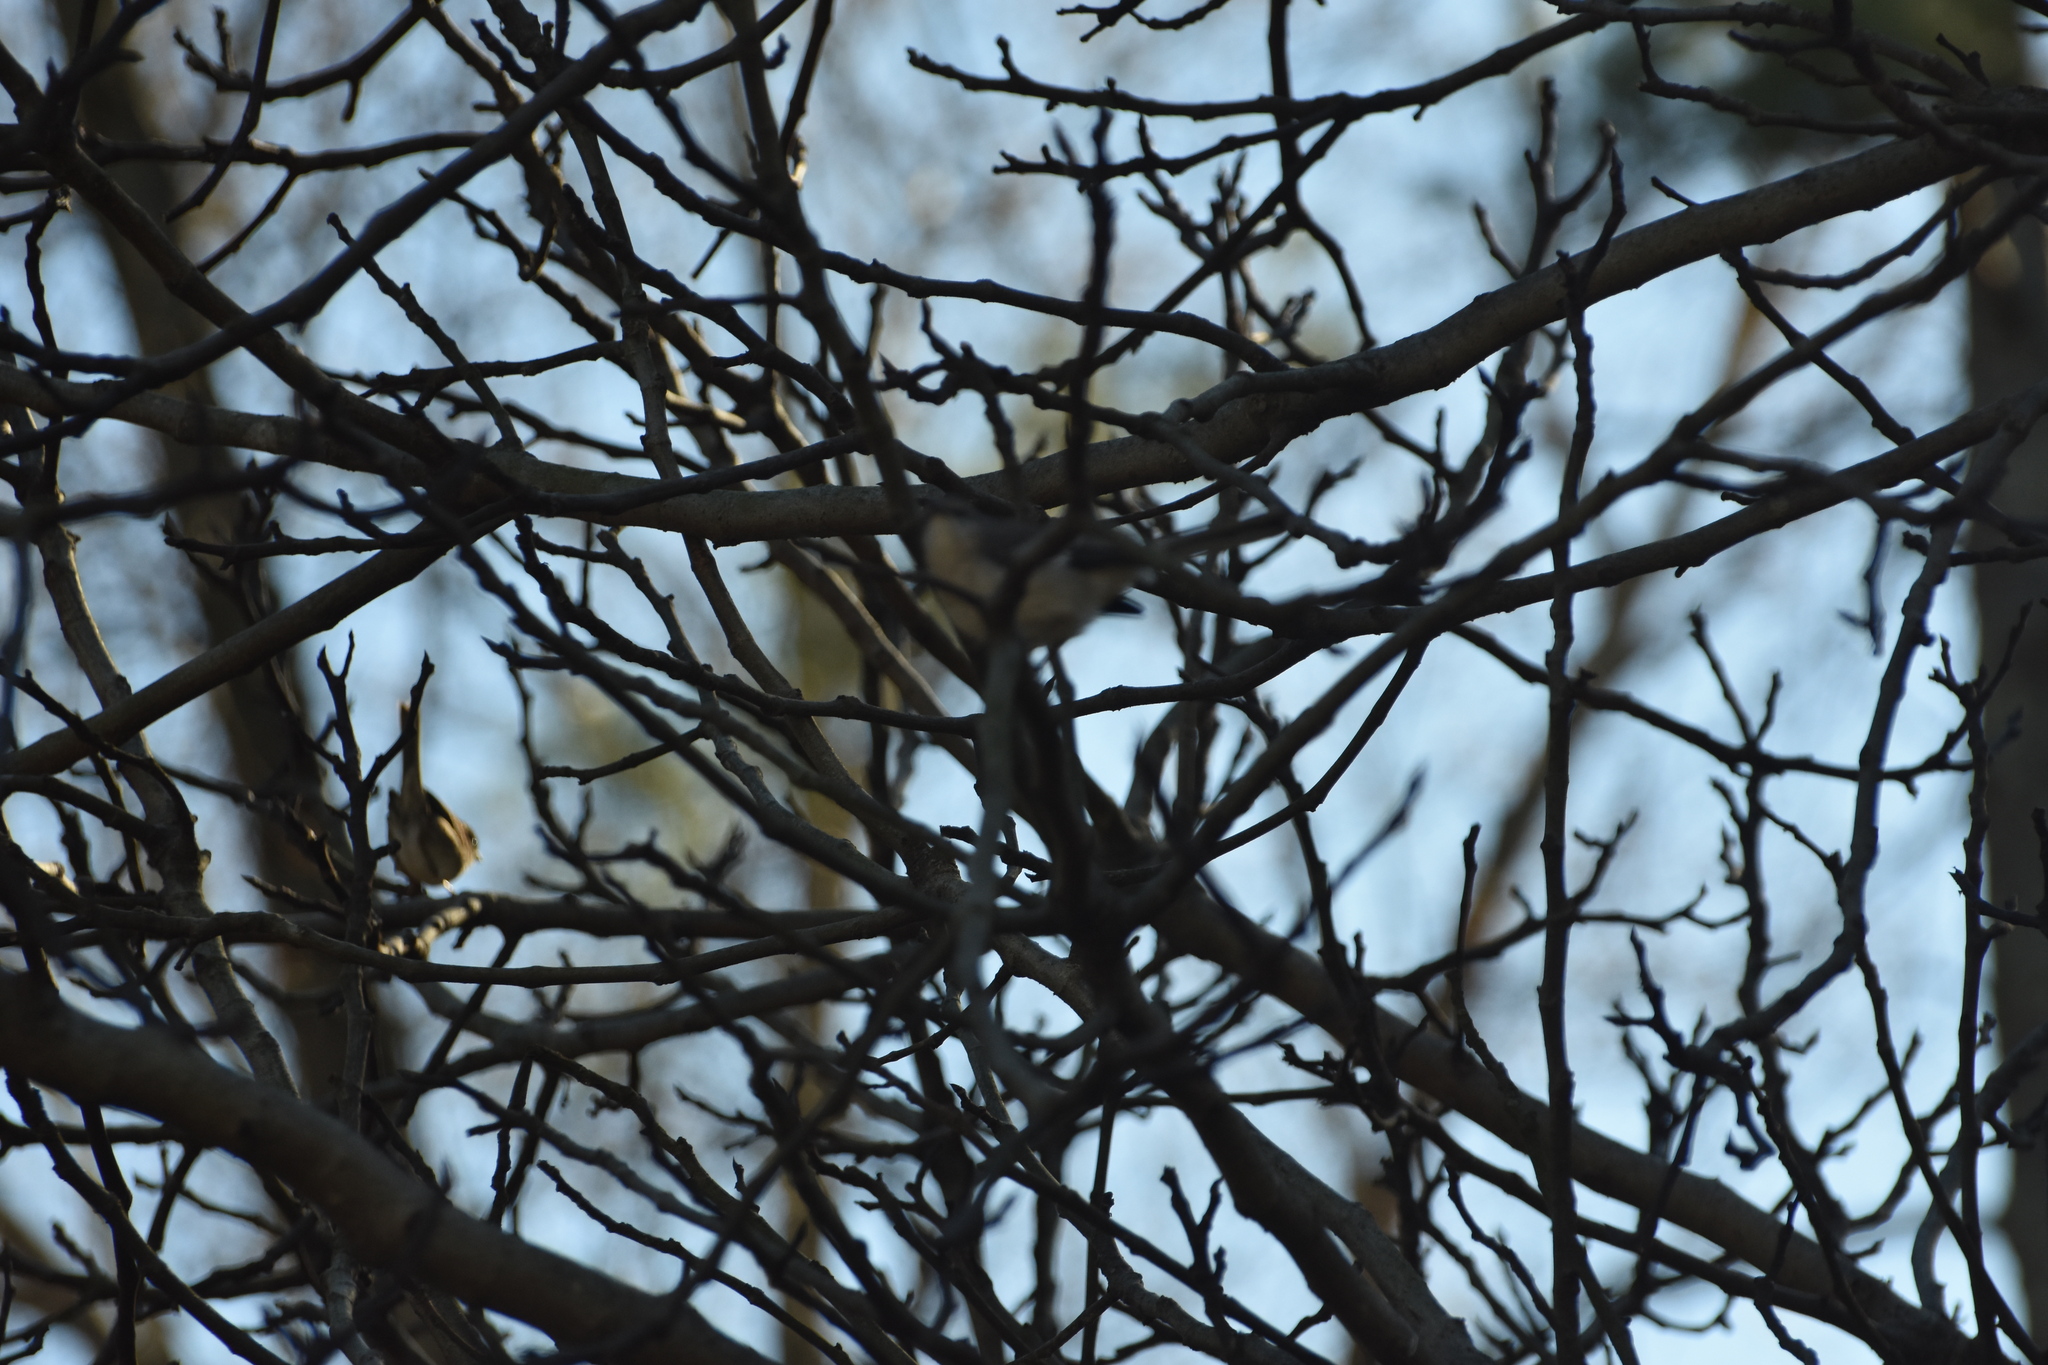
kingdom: Animalia
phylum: Chordata
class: Aves
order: Passeriformes
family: Mimidae
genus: Mimus
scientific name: Mimus polyglottos
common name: Northern mockingbird
